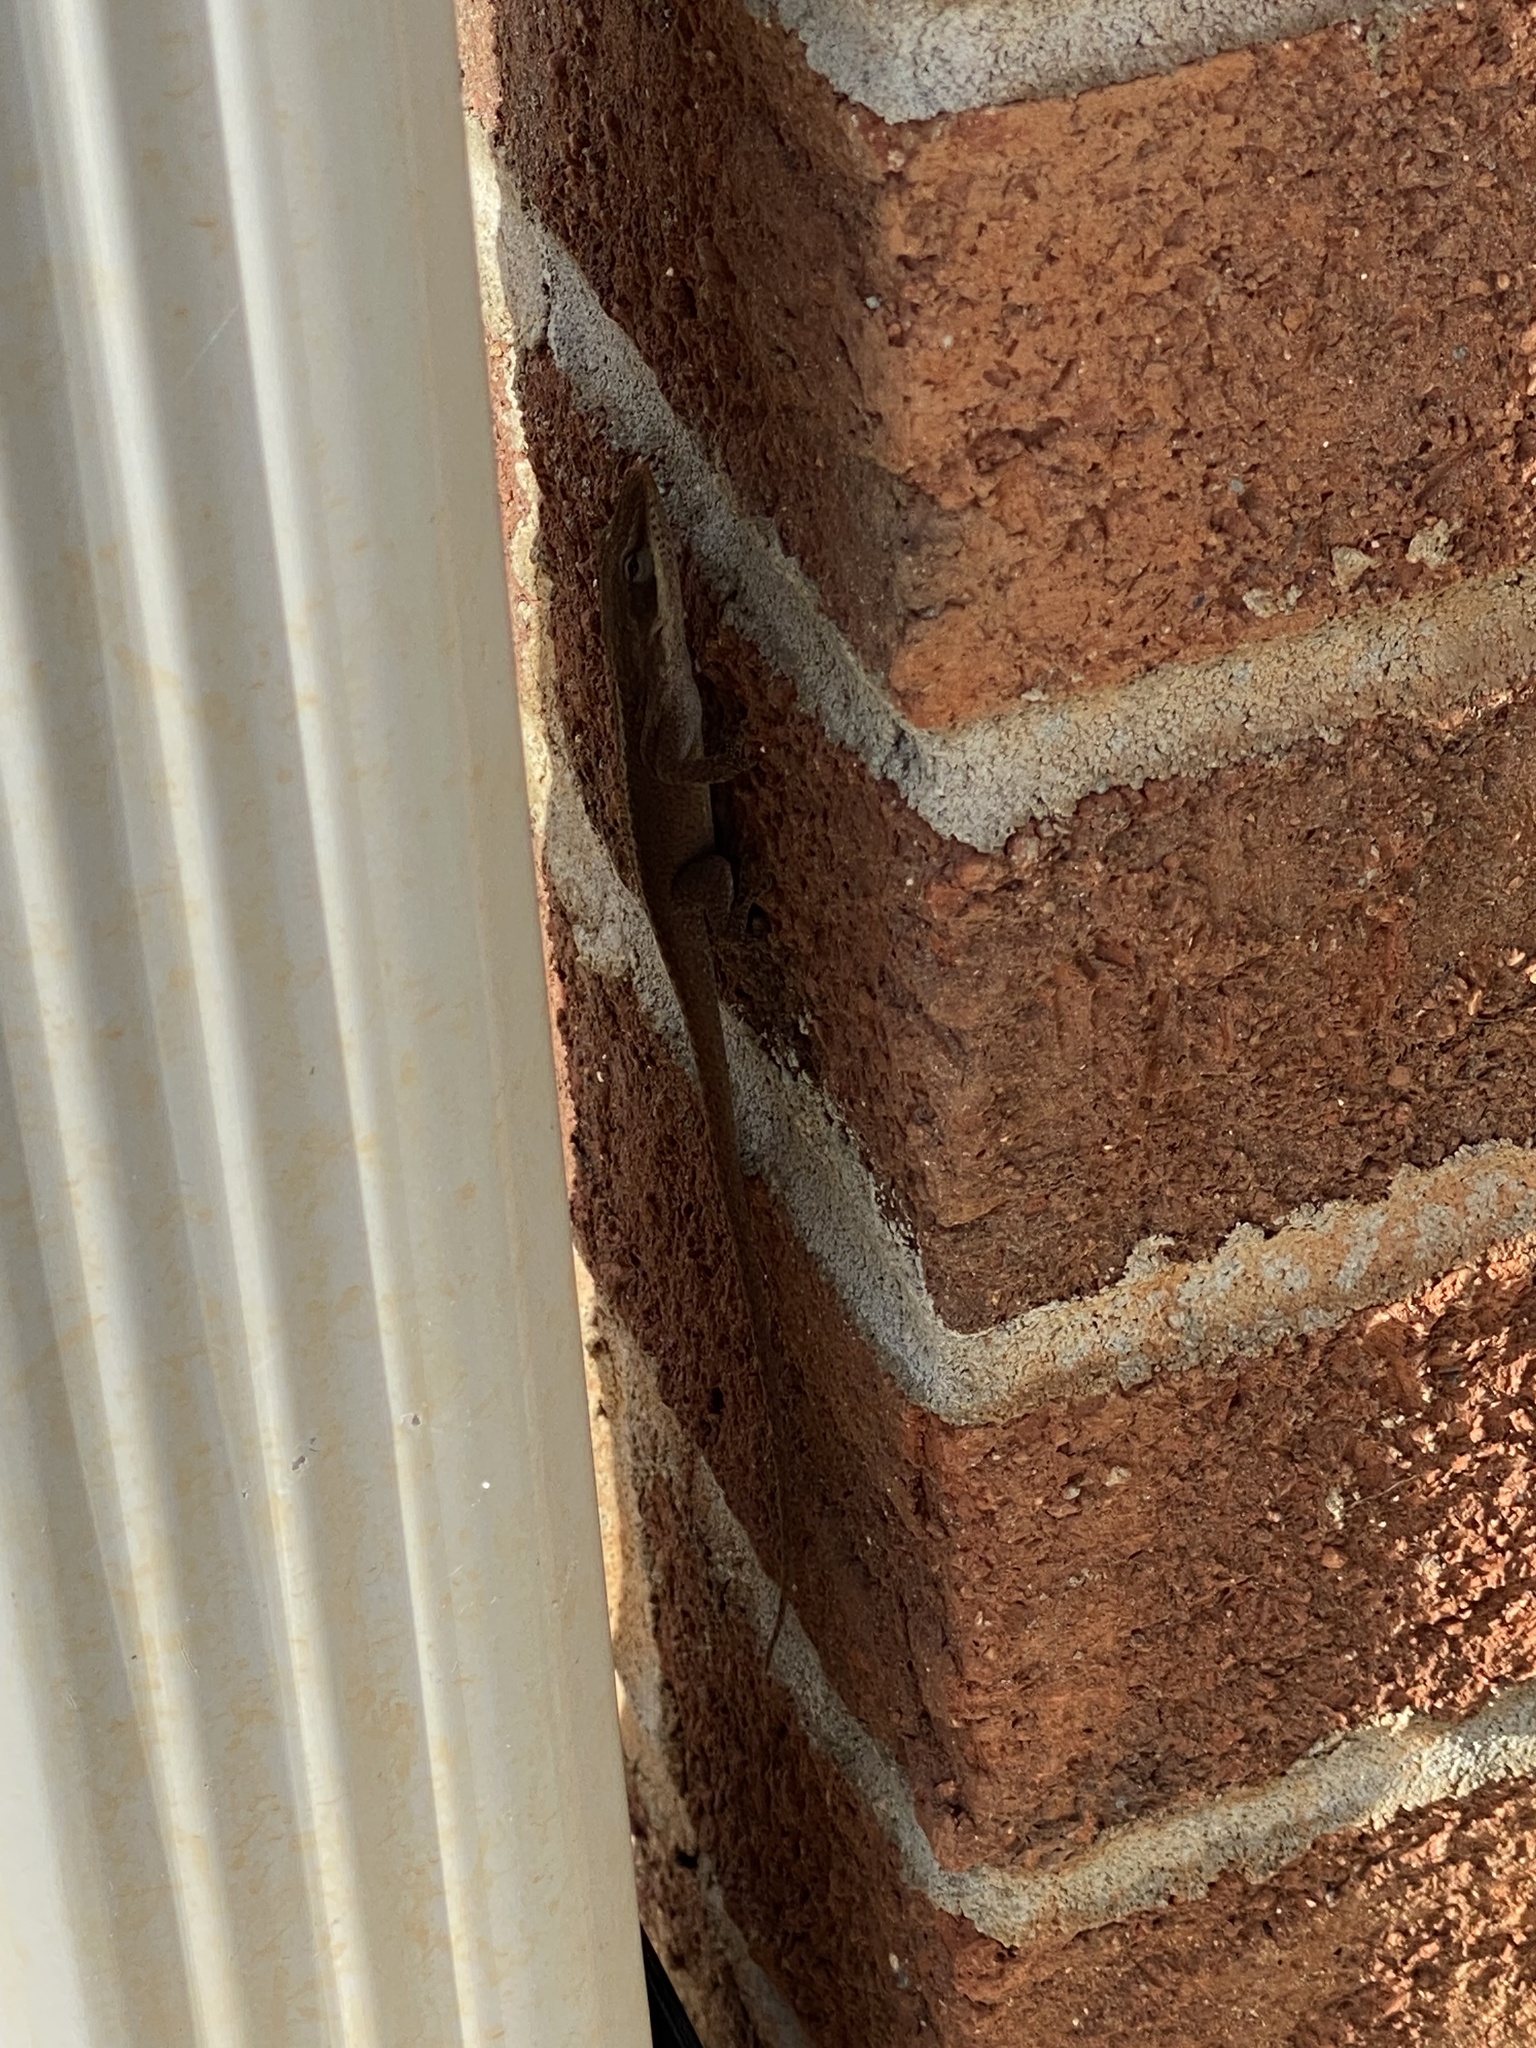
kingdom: Animalia
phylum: Chordata
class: Squamata
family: Dactyloidae
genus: Anolis
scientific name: Anolis carolinensis
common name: Green anole
